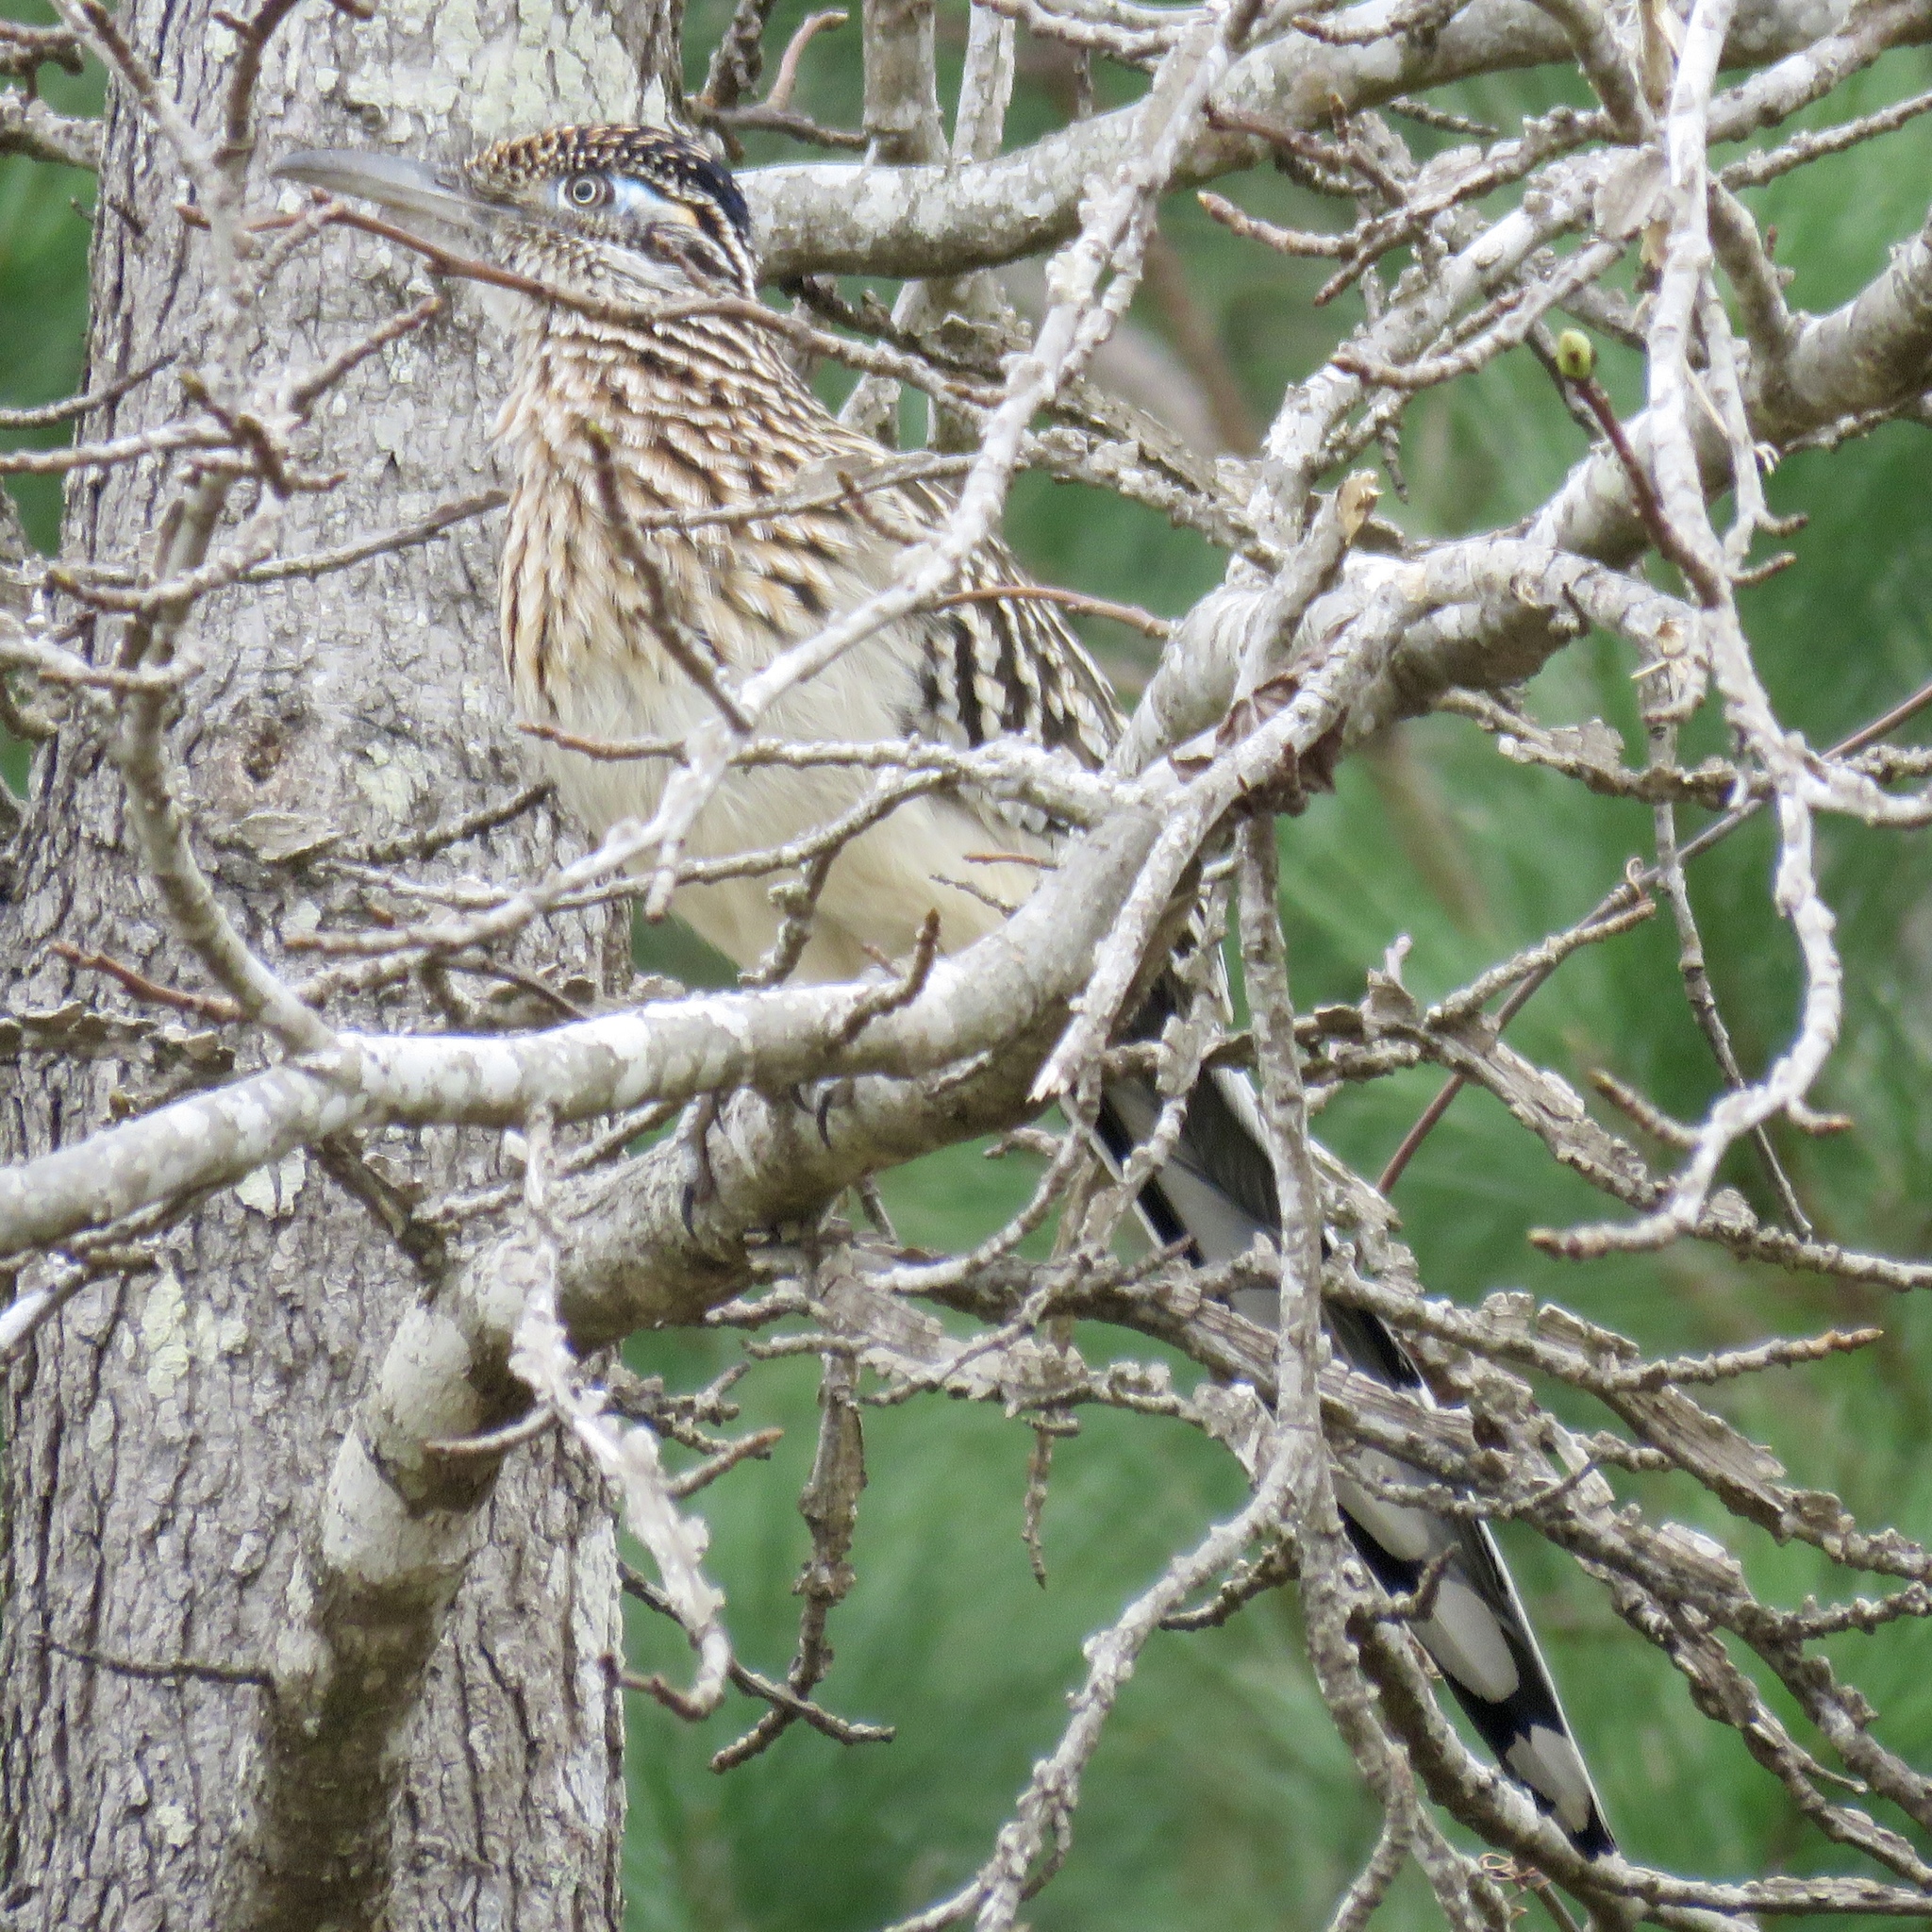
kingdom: Animalia
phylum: Chordata
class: Aves
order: Cuculiformes
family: Cuculidae
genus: Geococcyx
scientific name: Geococcyx californianus
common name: Greater roadrunner
